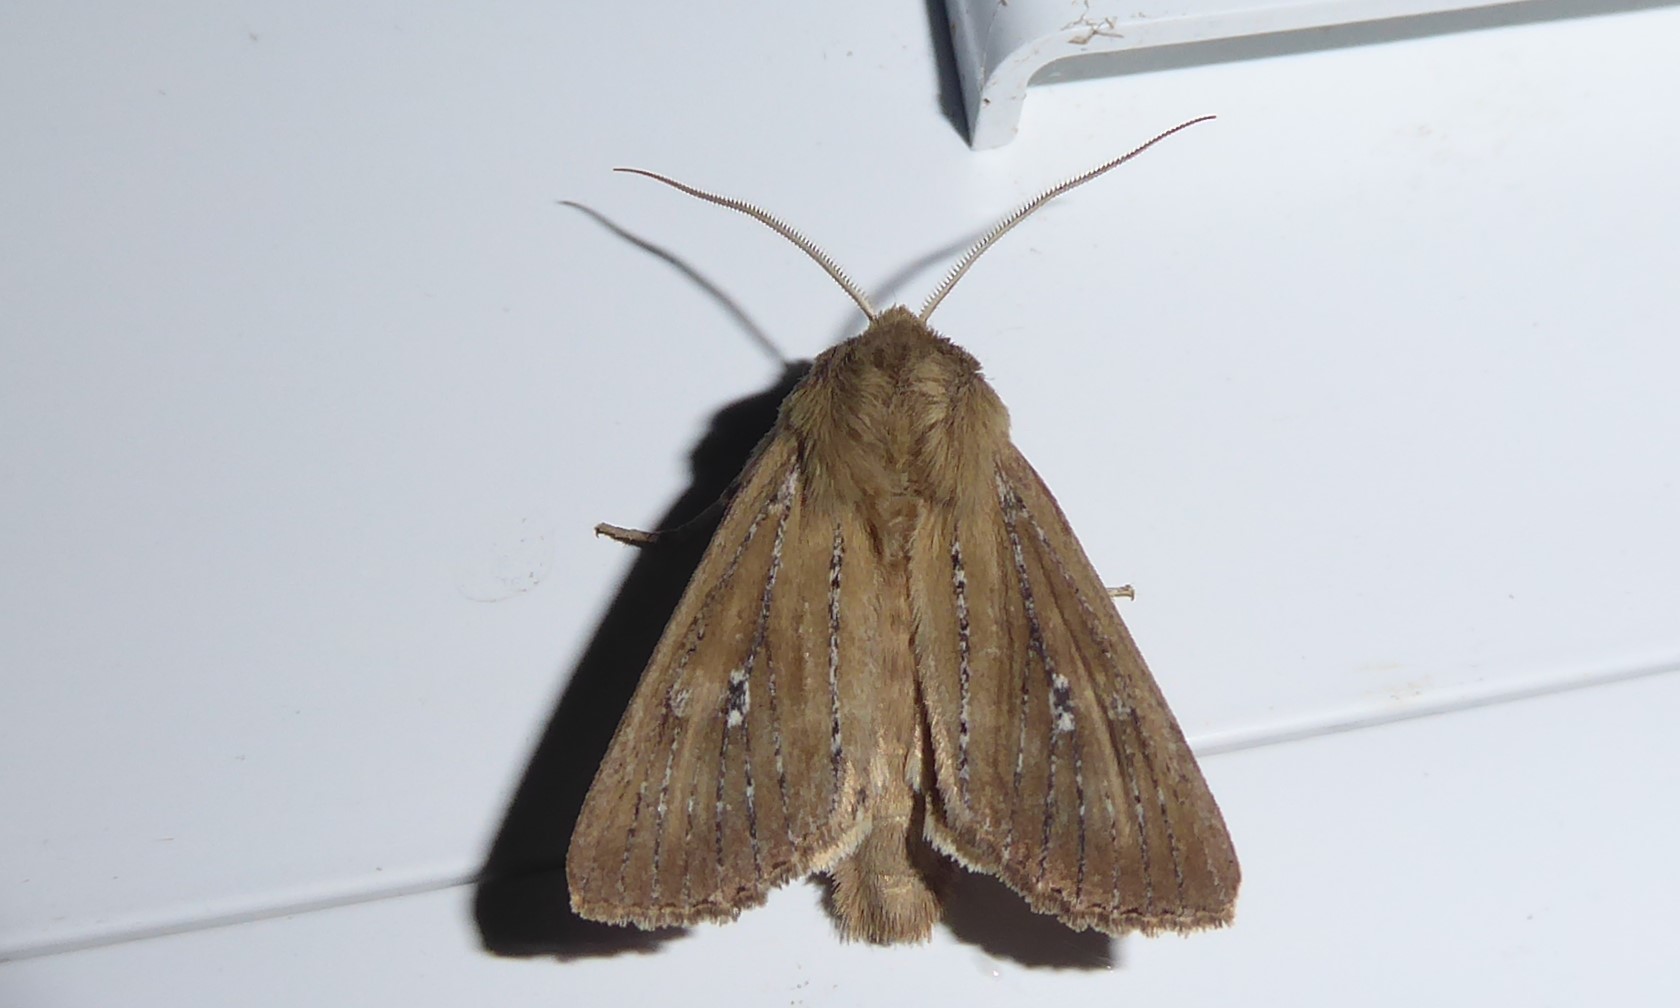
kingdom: Animalia
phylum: Arthropoda
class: Insecta
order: Lepidoptera
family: Noctuidae
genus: Ichneutica
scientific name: Ichneutica
